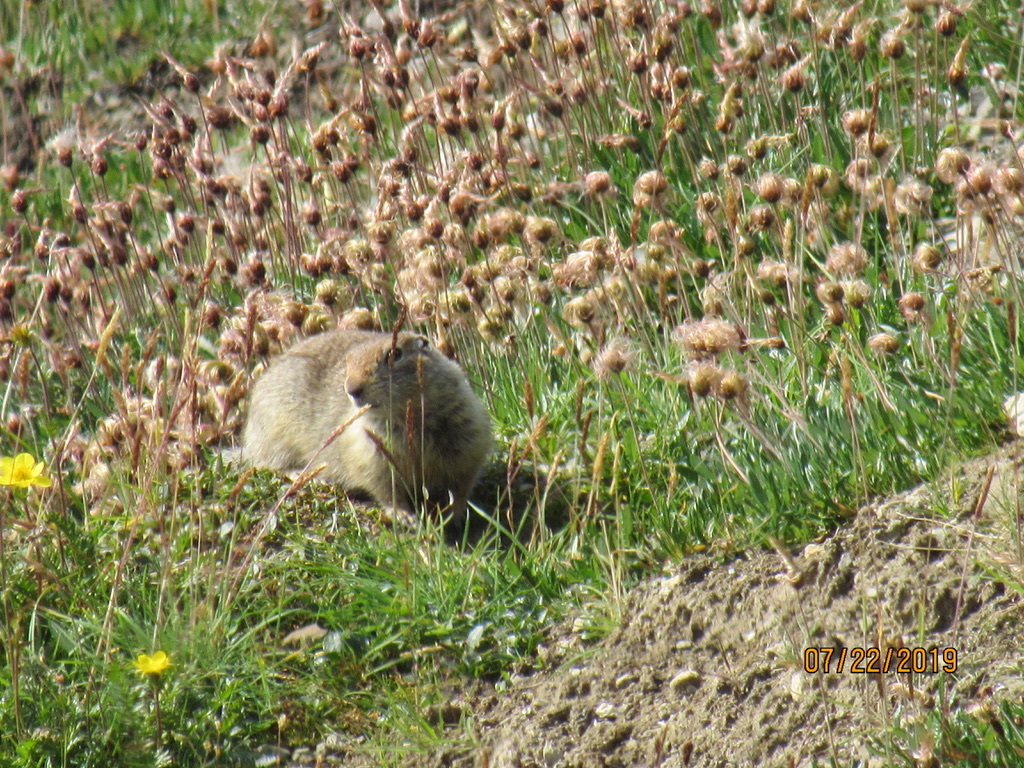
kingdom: Animalia
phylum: Chordata
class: Mammalia
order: Rodentia
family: Sciuridae
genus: Urocitellus
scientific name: Urocitellus parryii
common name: Arctic ground squirrel
